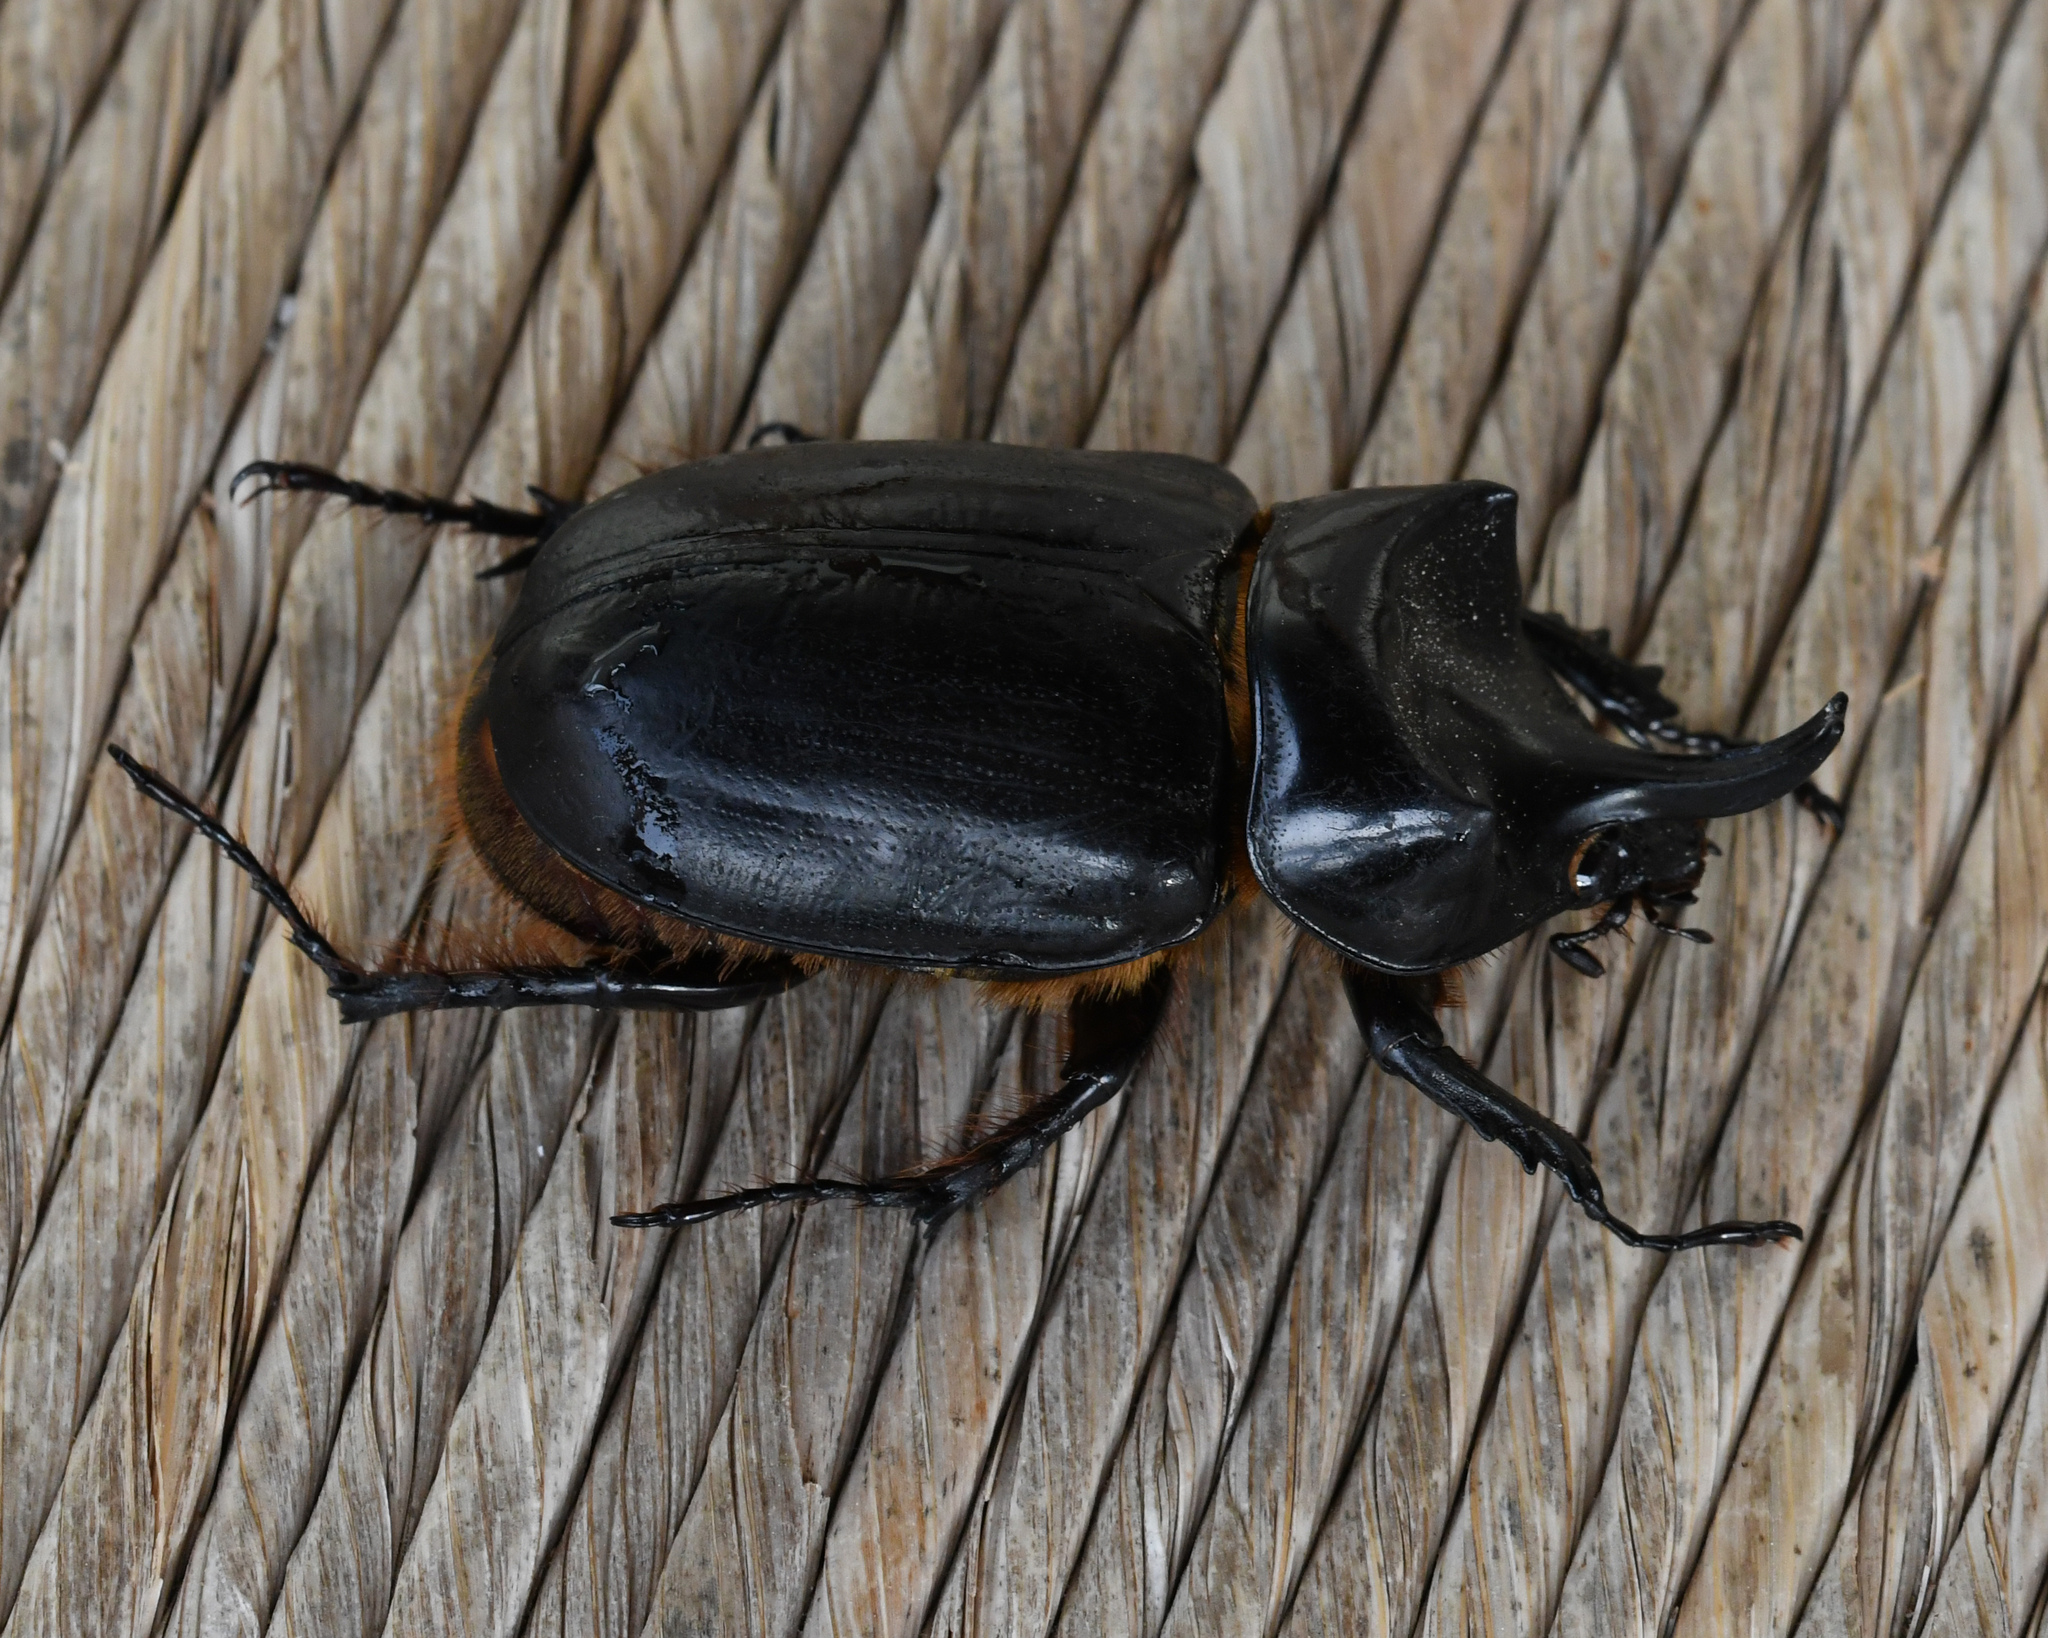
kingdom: Animalia
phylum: Arthropoda
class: Insecta
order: Coleoptera
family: Scarabaeidae
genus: Strategus
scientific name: Strategus aenobarbus
